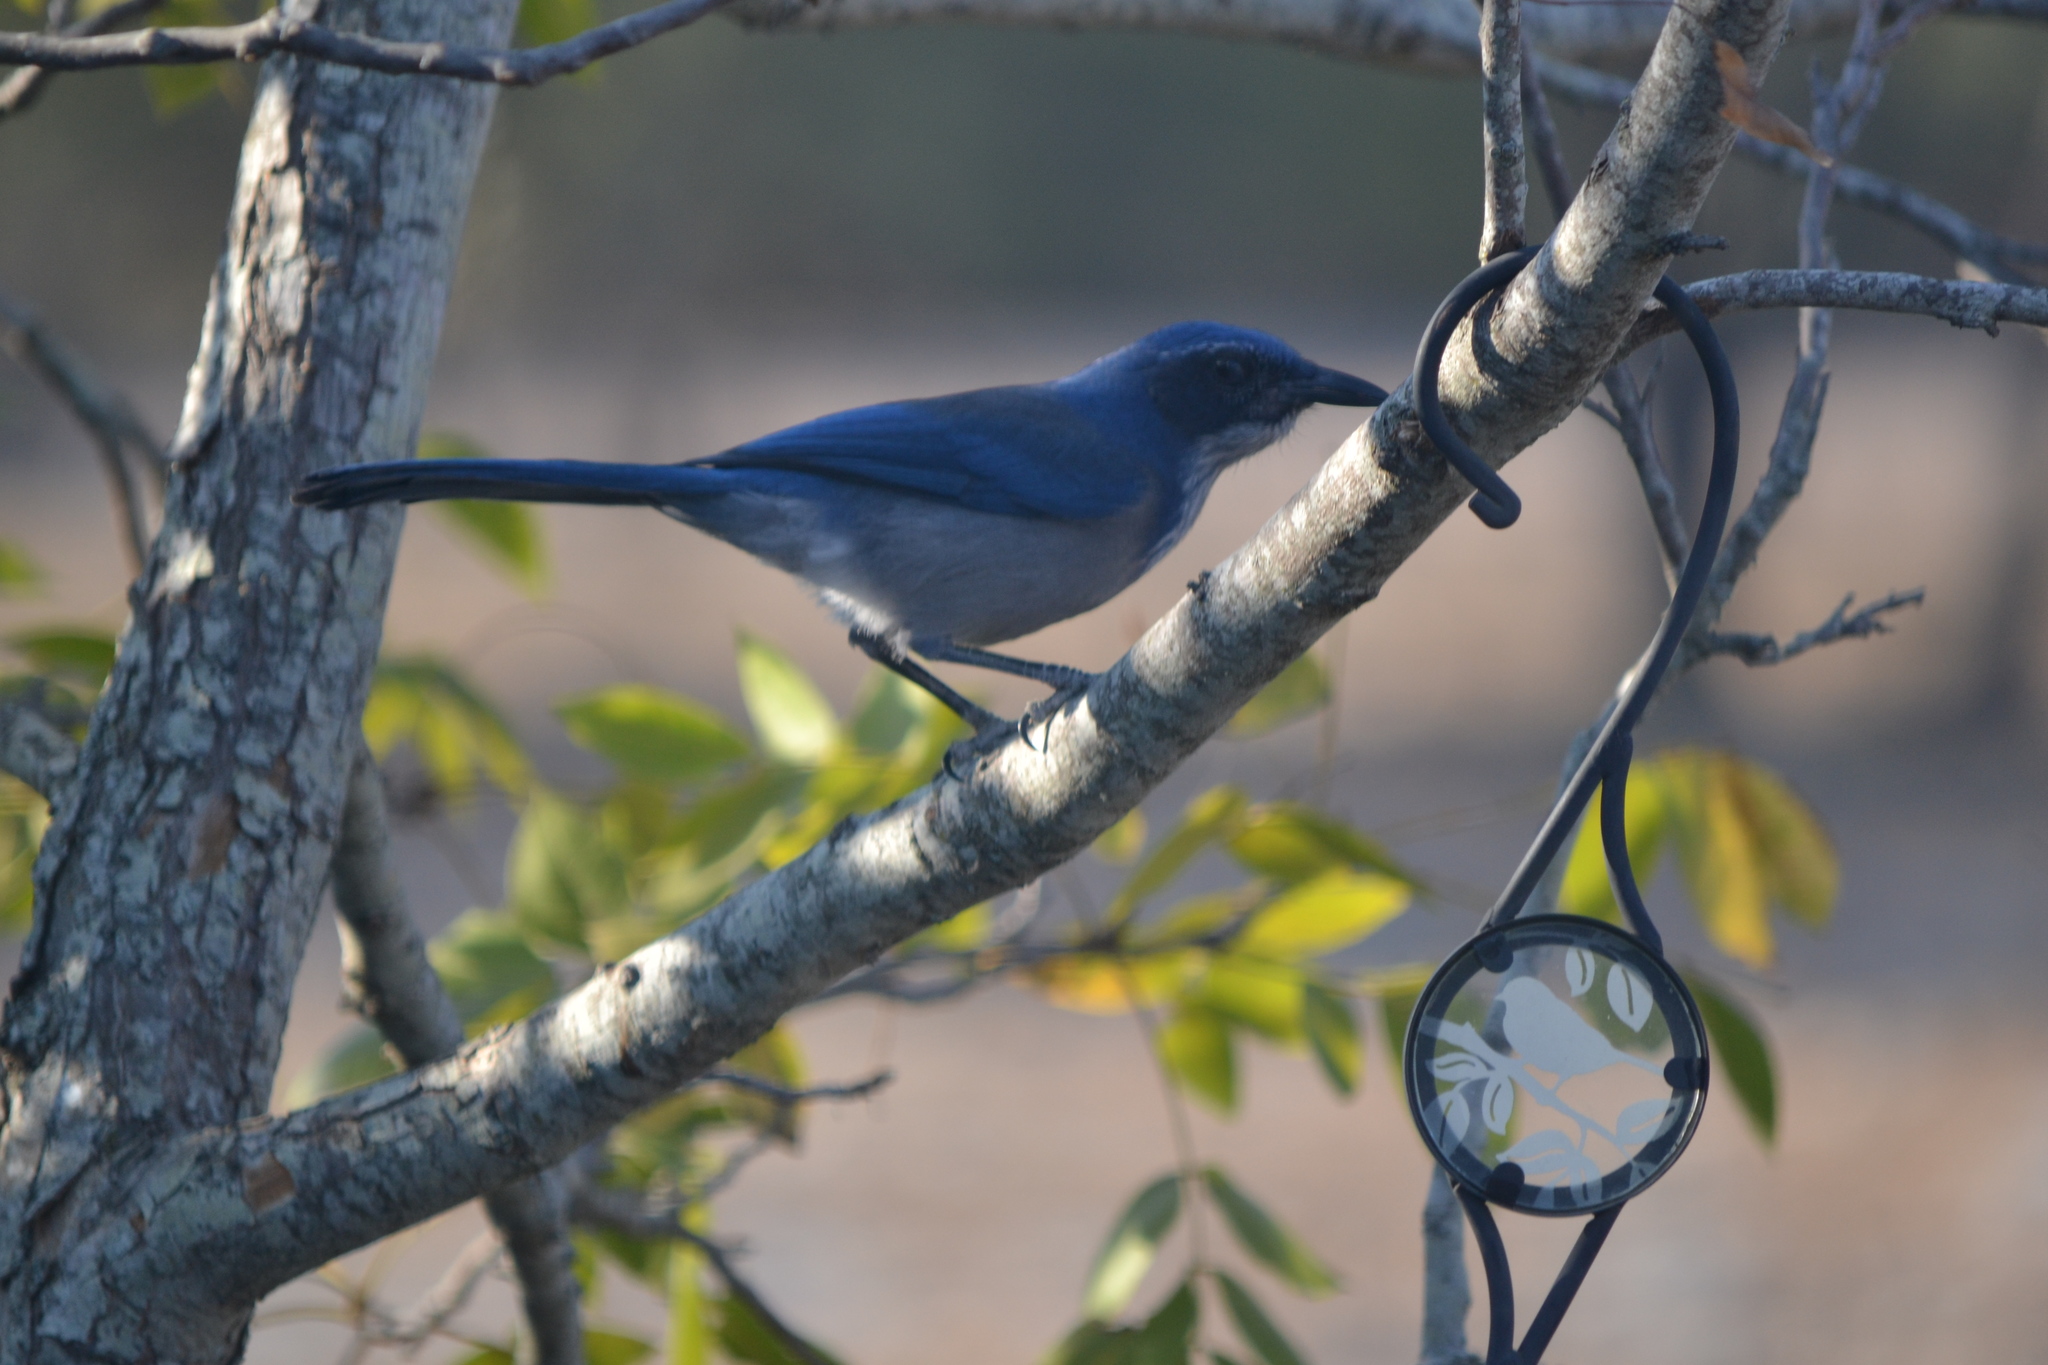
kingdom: Animalia
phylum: Chordata
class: Aves
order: Passeriformes
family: Corvidae
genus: Aphelocoma
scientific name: Aphelocoma woodhouseii
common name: Woodhouse's scrub-jay
